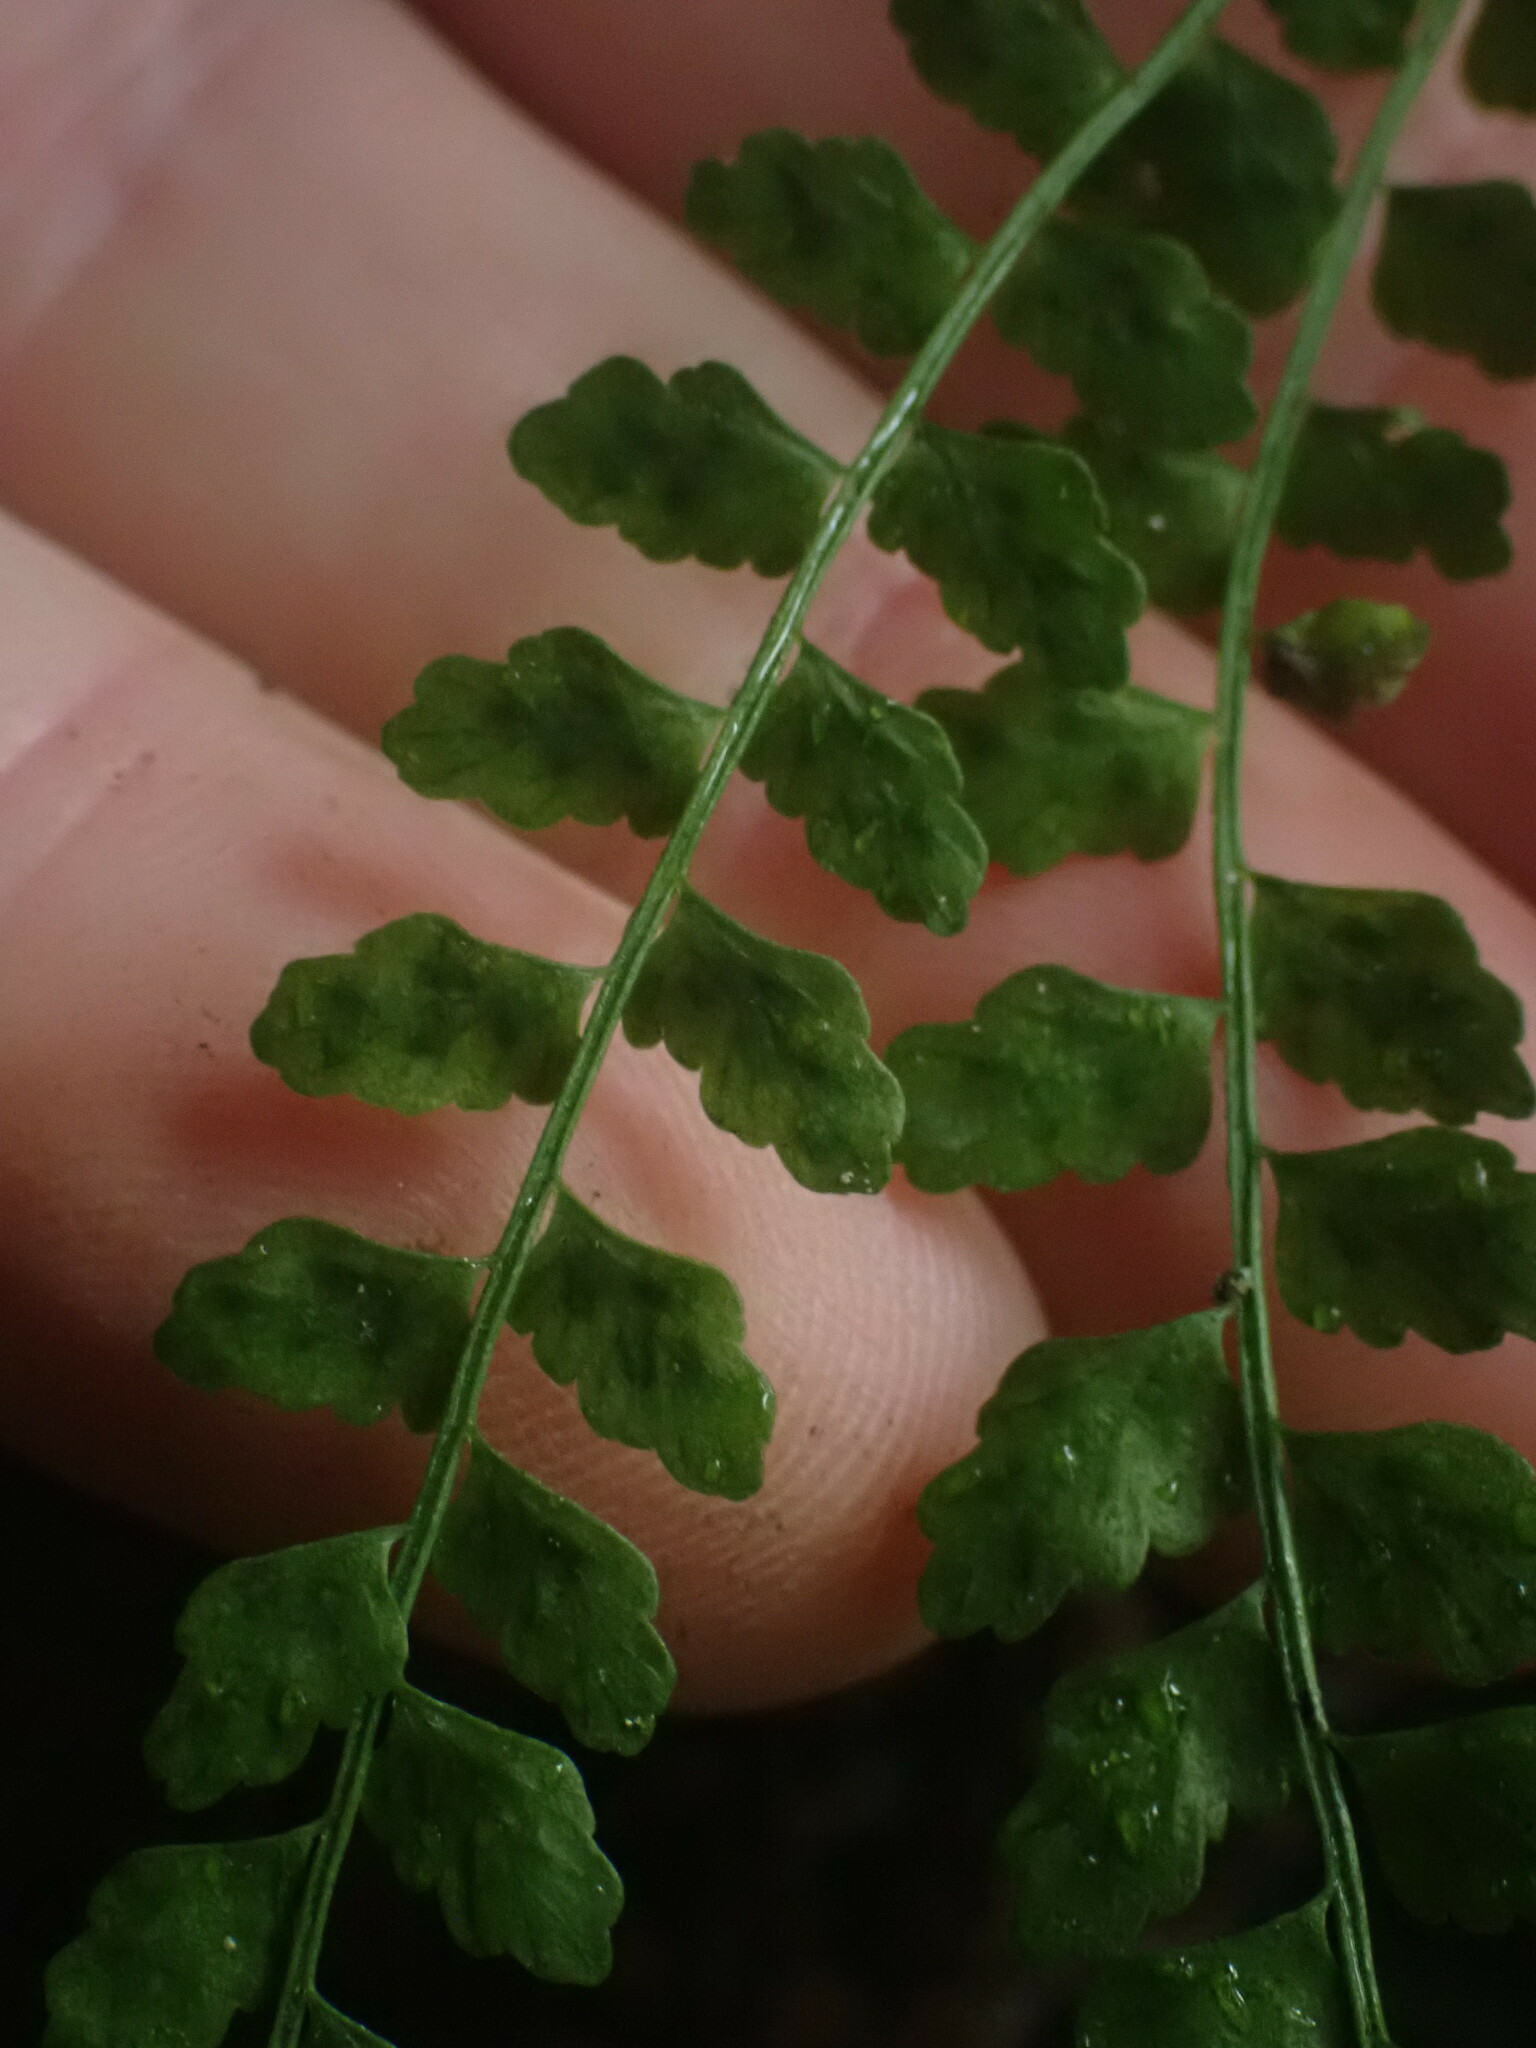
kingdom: Plantae
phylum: Tracheophyta
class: Polypodiopsida
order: Polypodiales
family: Aspleniaceae
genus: Asplenium
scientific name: Asplenium viride
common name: Green spleenwort
